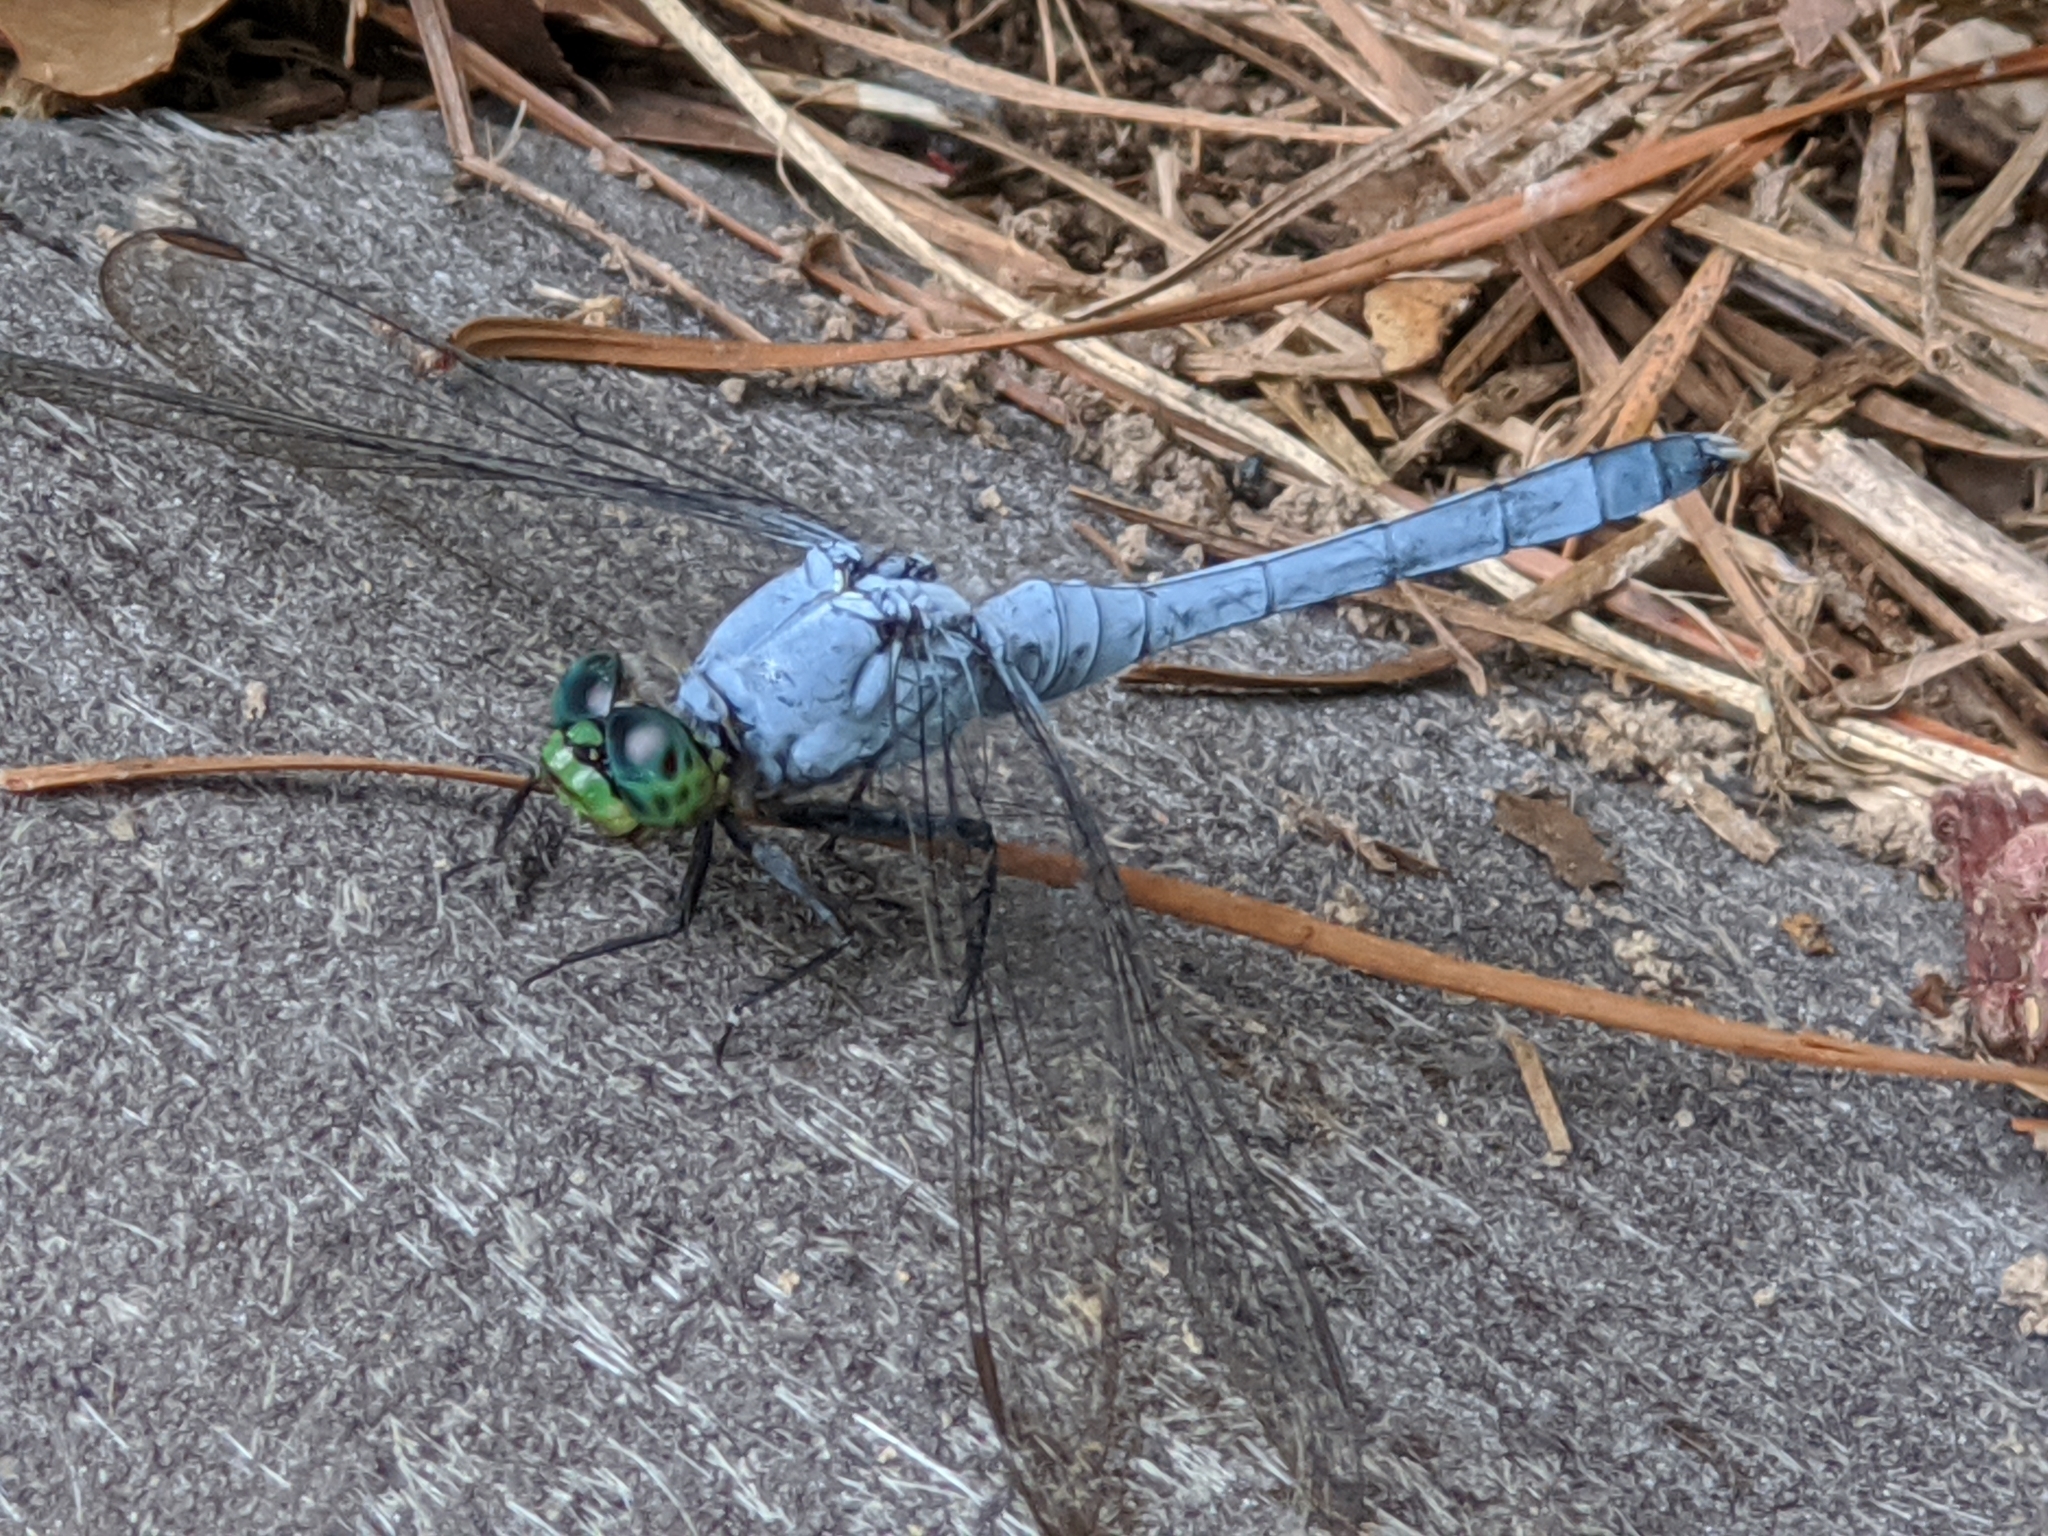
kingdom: Animalia
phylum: Arthropoda
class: Insecta
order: Odonata
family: Libellulidae
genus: Erythemis
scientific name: Erythemis simplicicollis
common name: Eastern pondhawk
